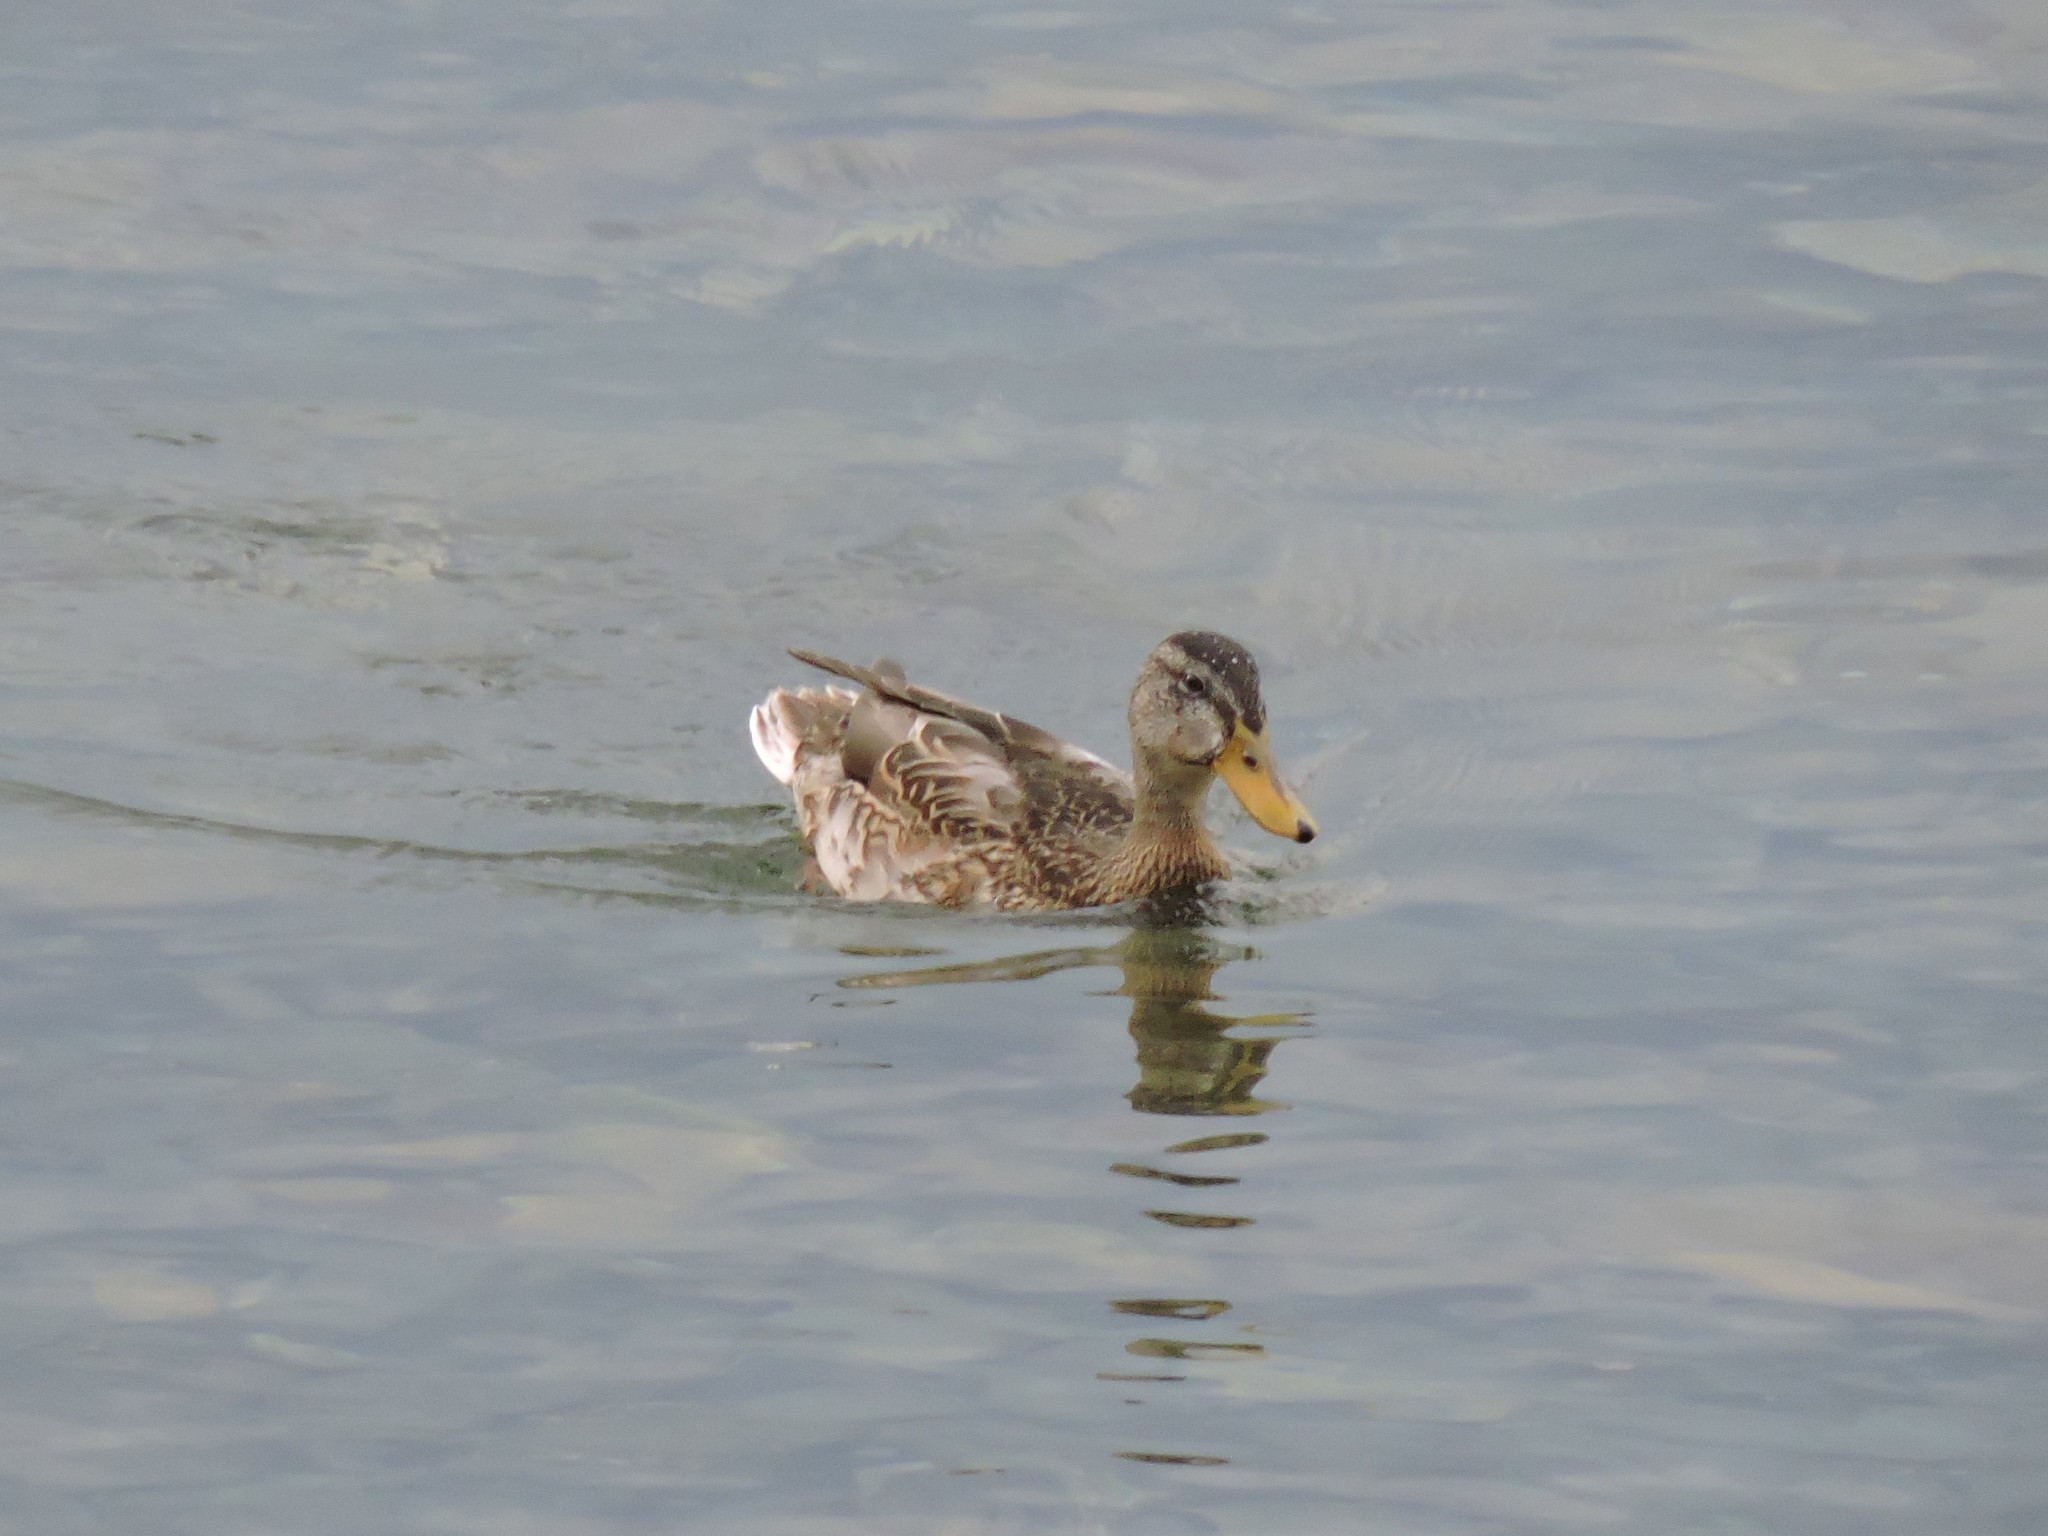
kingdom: Animalia
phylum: Chordata
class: Aves
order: Anseriformes
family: Anatidae
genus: Anas
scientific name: Anas platyrhynchos
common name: Mallard
